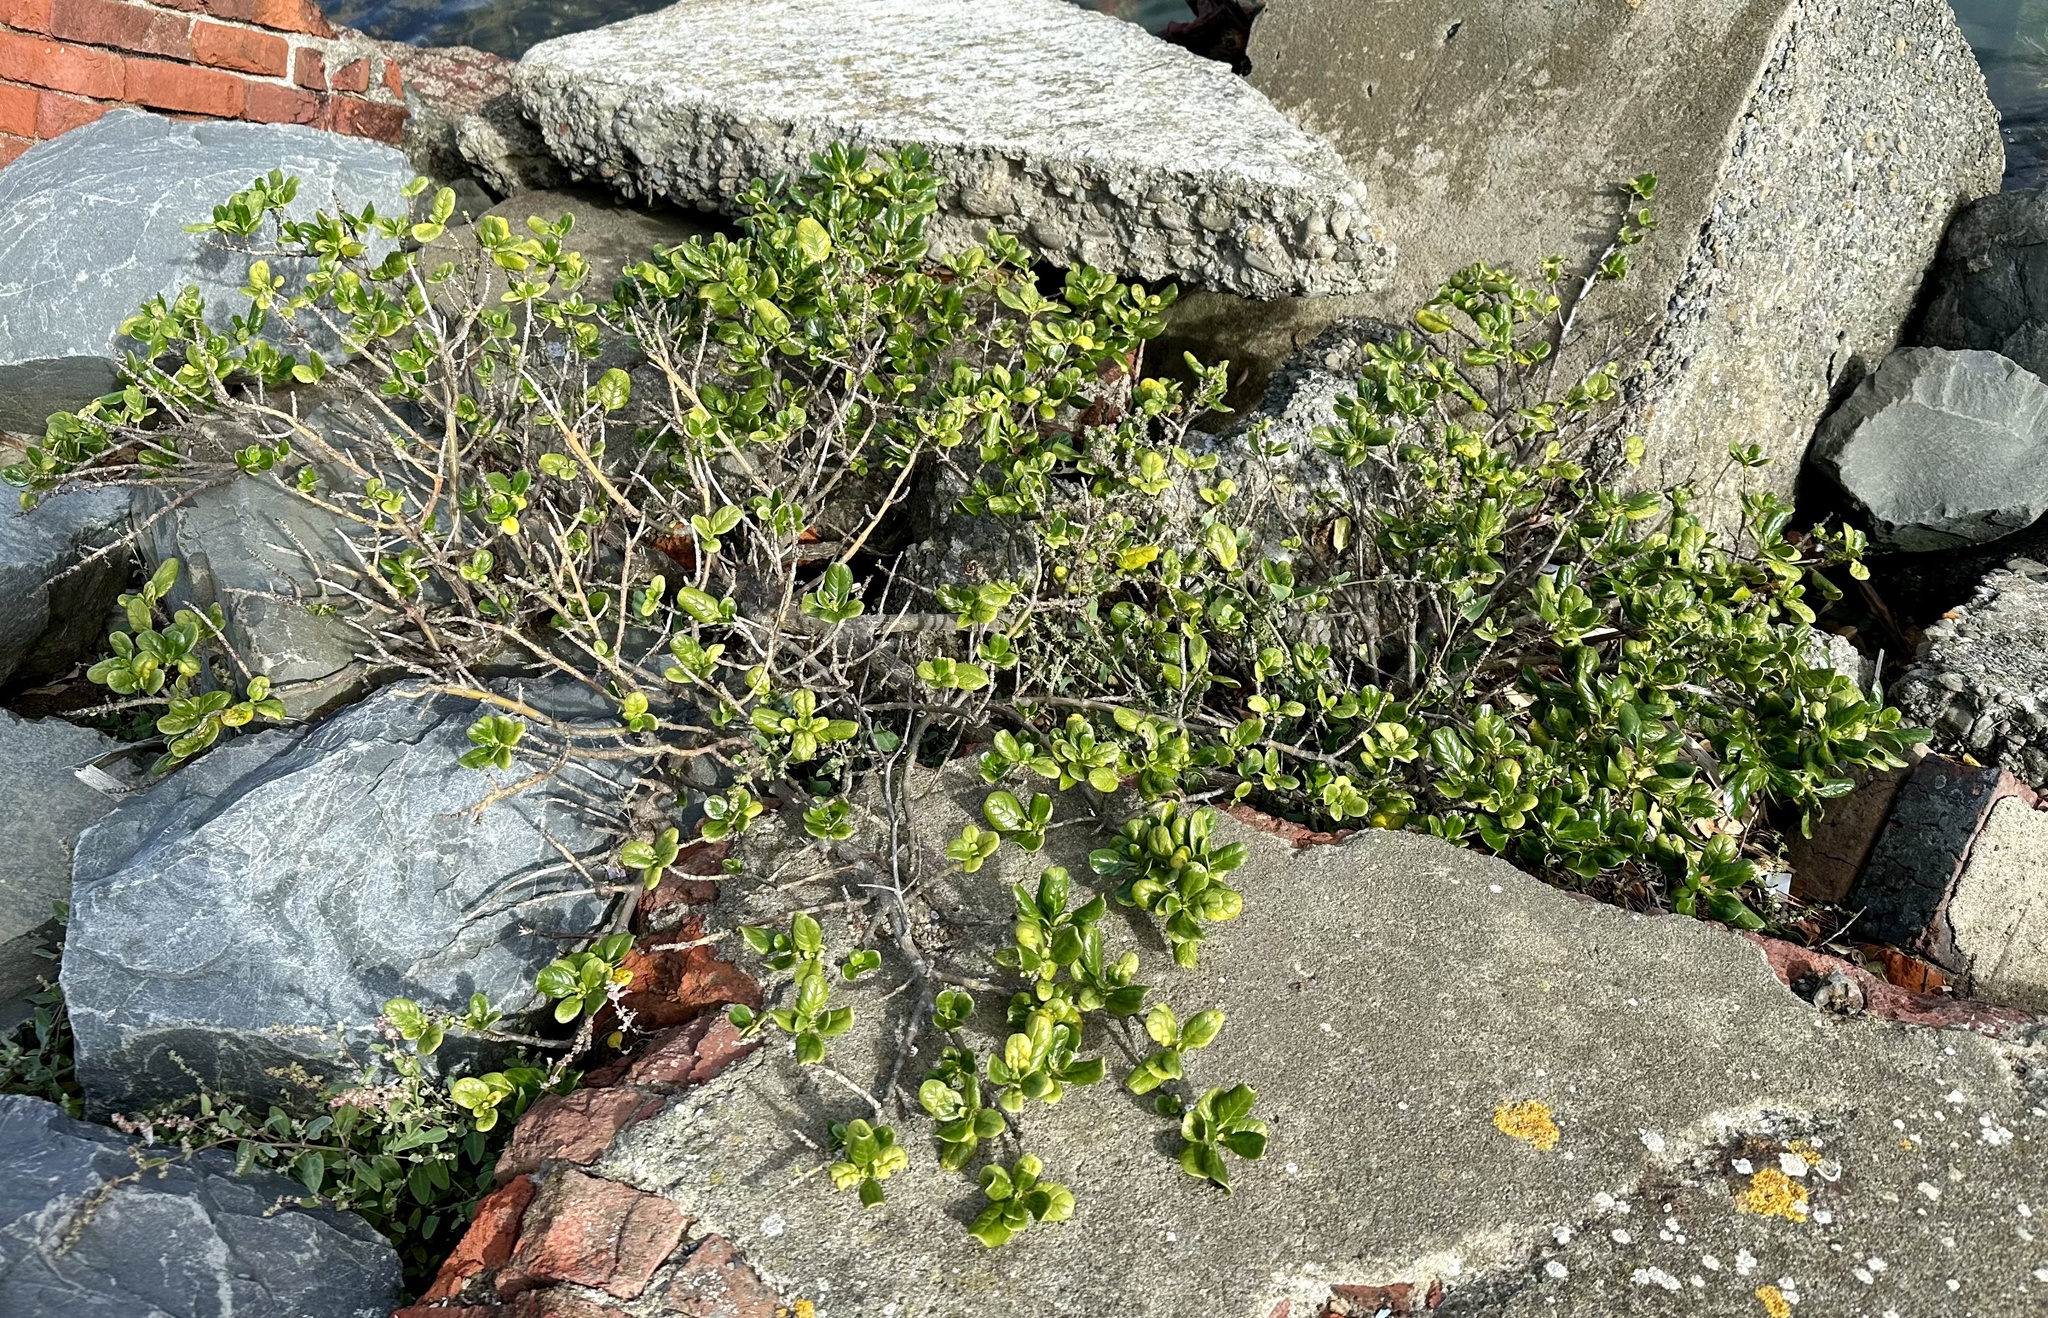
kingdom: Plantae
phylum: Tracheophyta
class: Magnoliopsida
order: Gentianales
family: Rubiaceae
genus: Coprosma
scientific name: Coprosma repens
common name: Tree bedstraw
